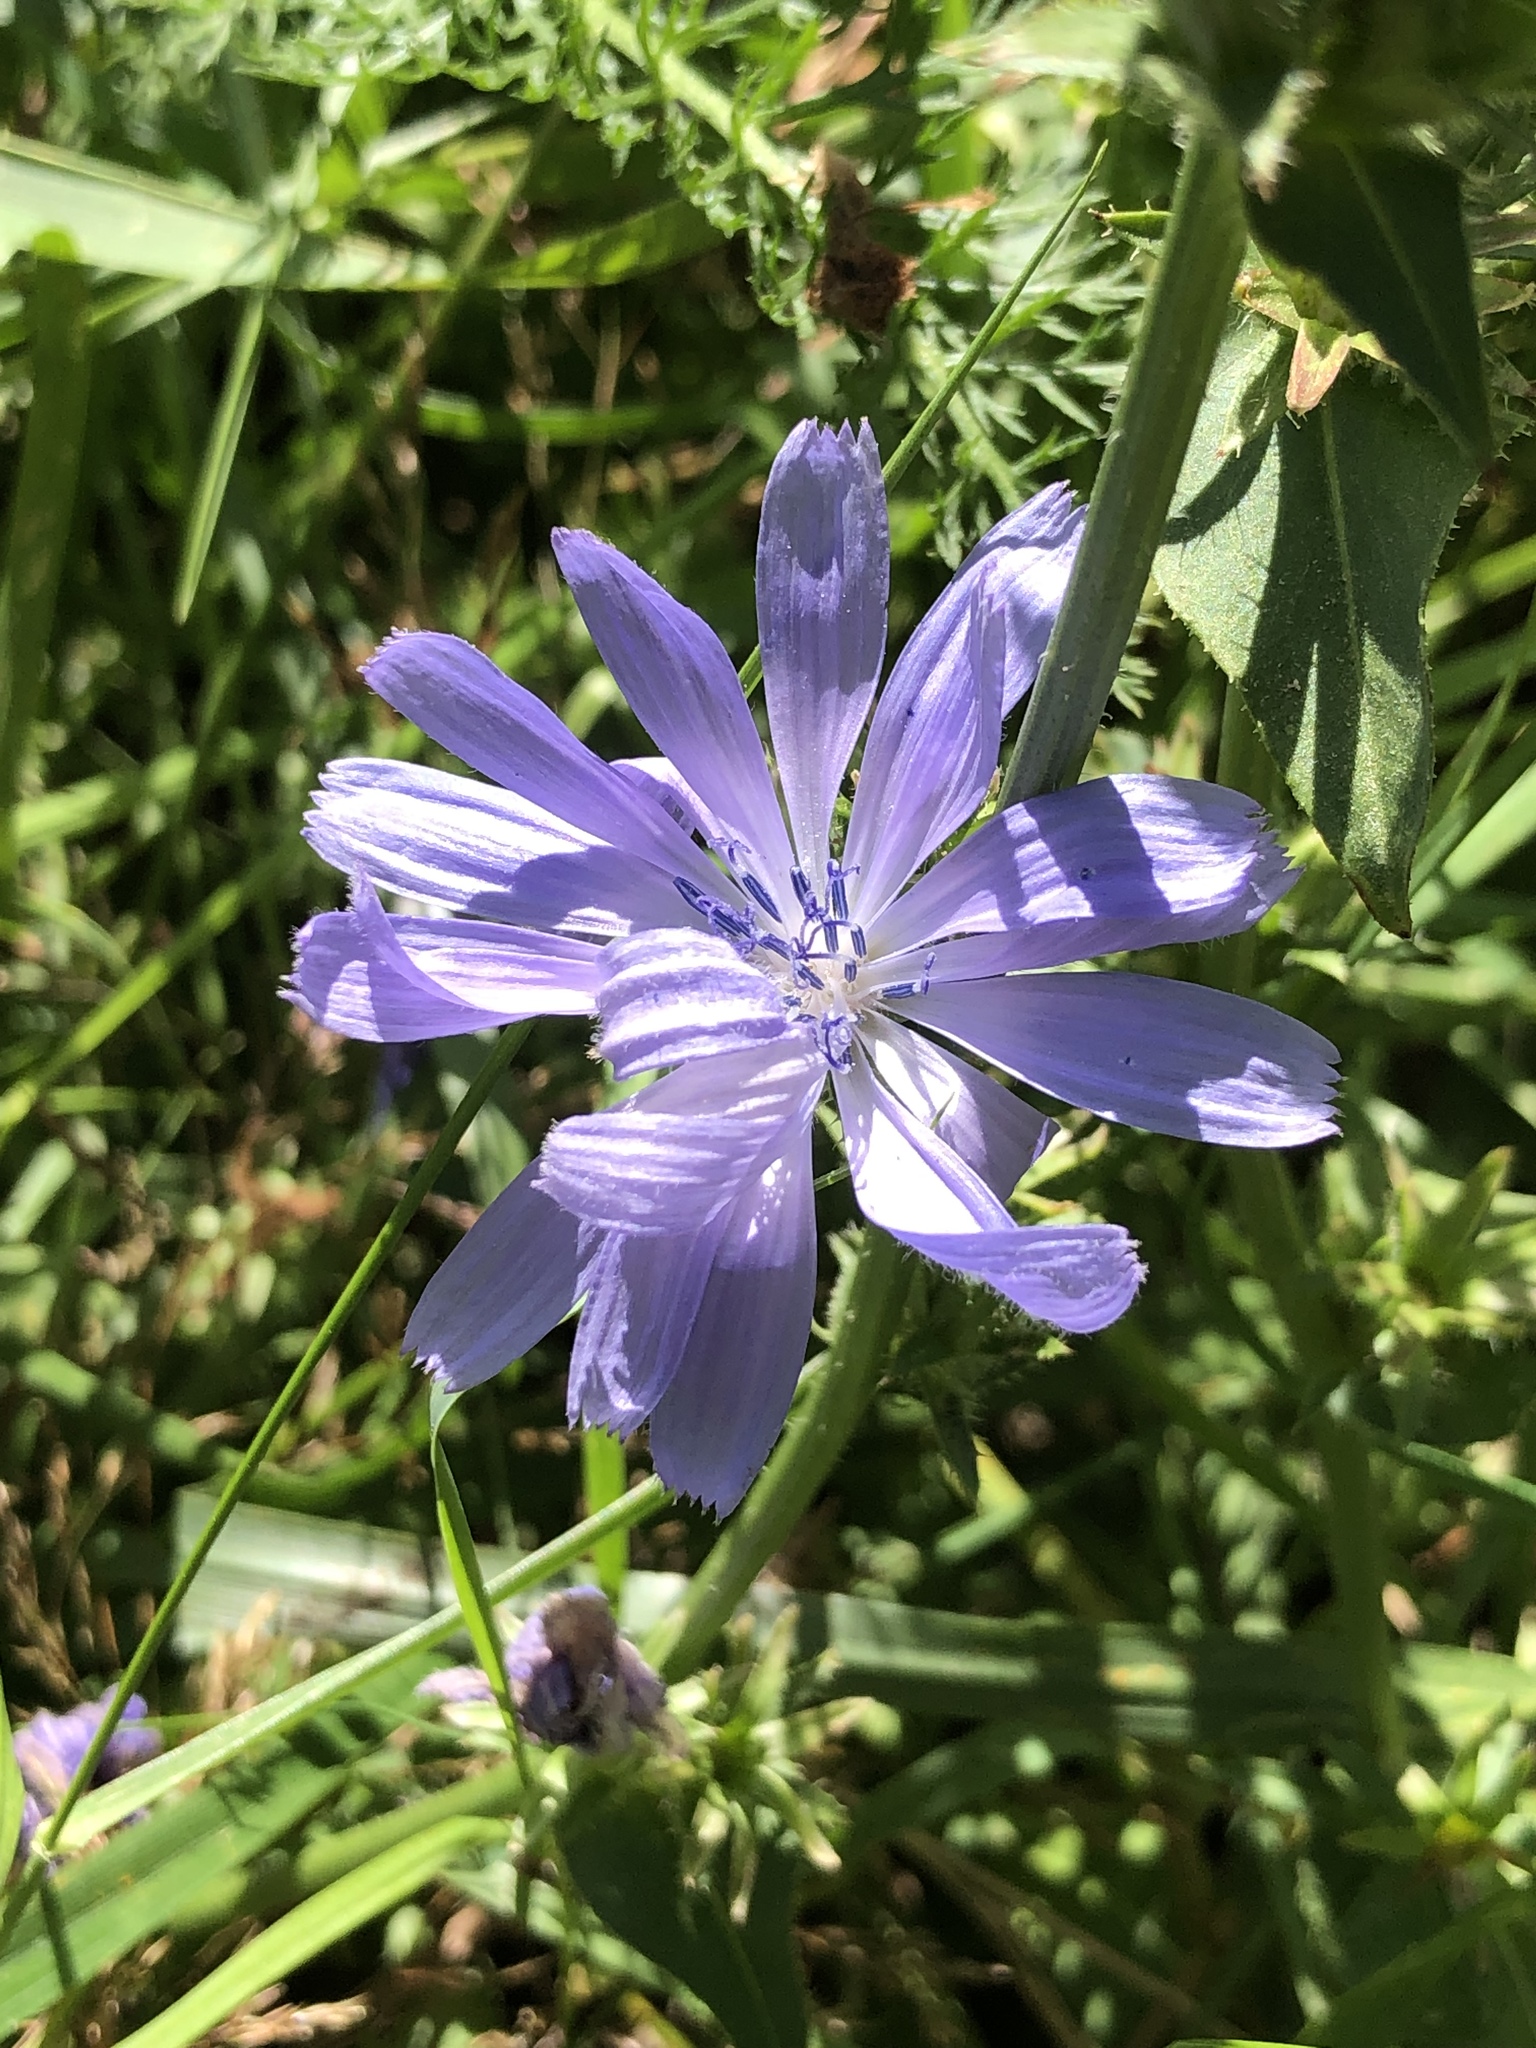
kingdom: Plantae
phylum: Tracheophyta
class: Magnoliopsida
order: Asterales
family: Asteraceae
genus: Cichorium
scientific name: Cichorium intybus
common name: Chicory
